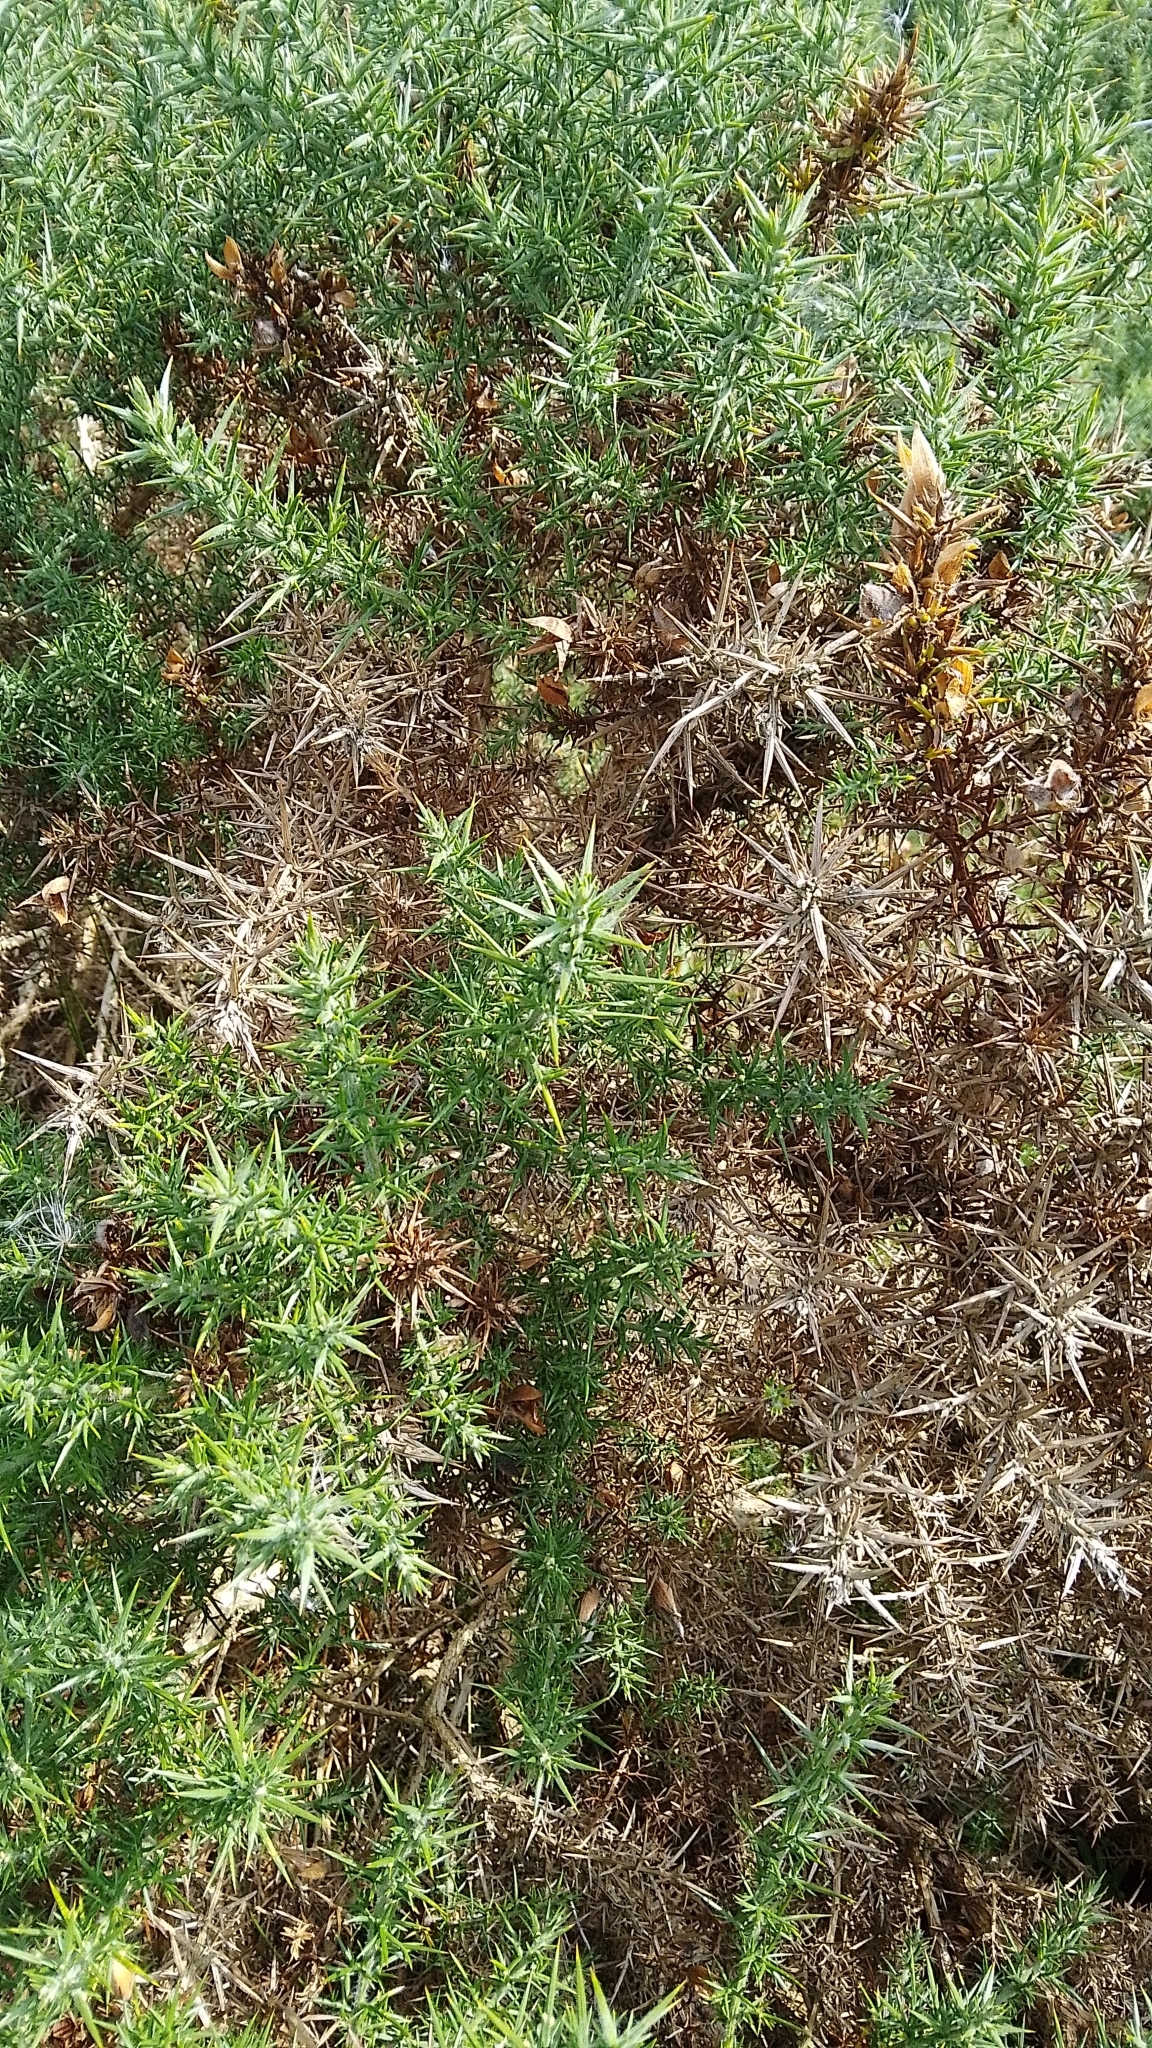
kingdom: Plantae
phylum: Tracheophyta
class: Magnoliopsida
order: Fabales
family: Fabaceae
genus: Ulex
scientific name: Ulex europaeus
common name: Common gorse
